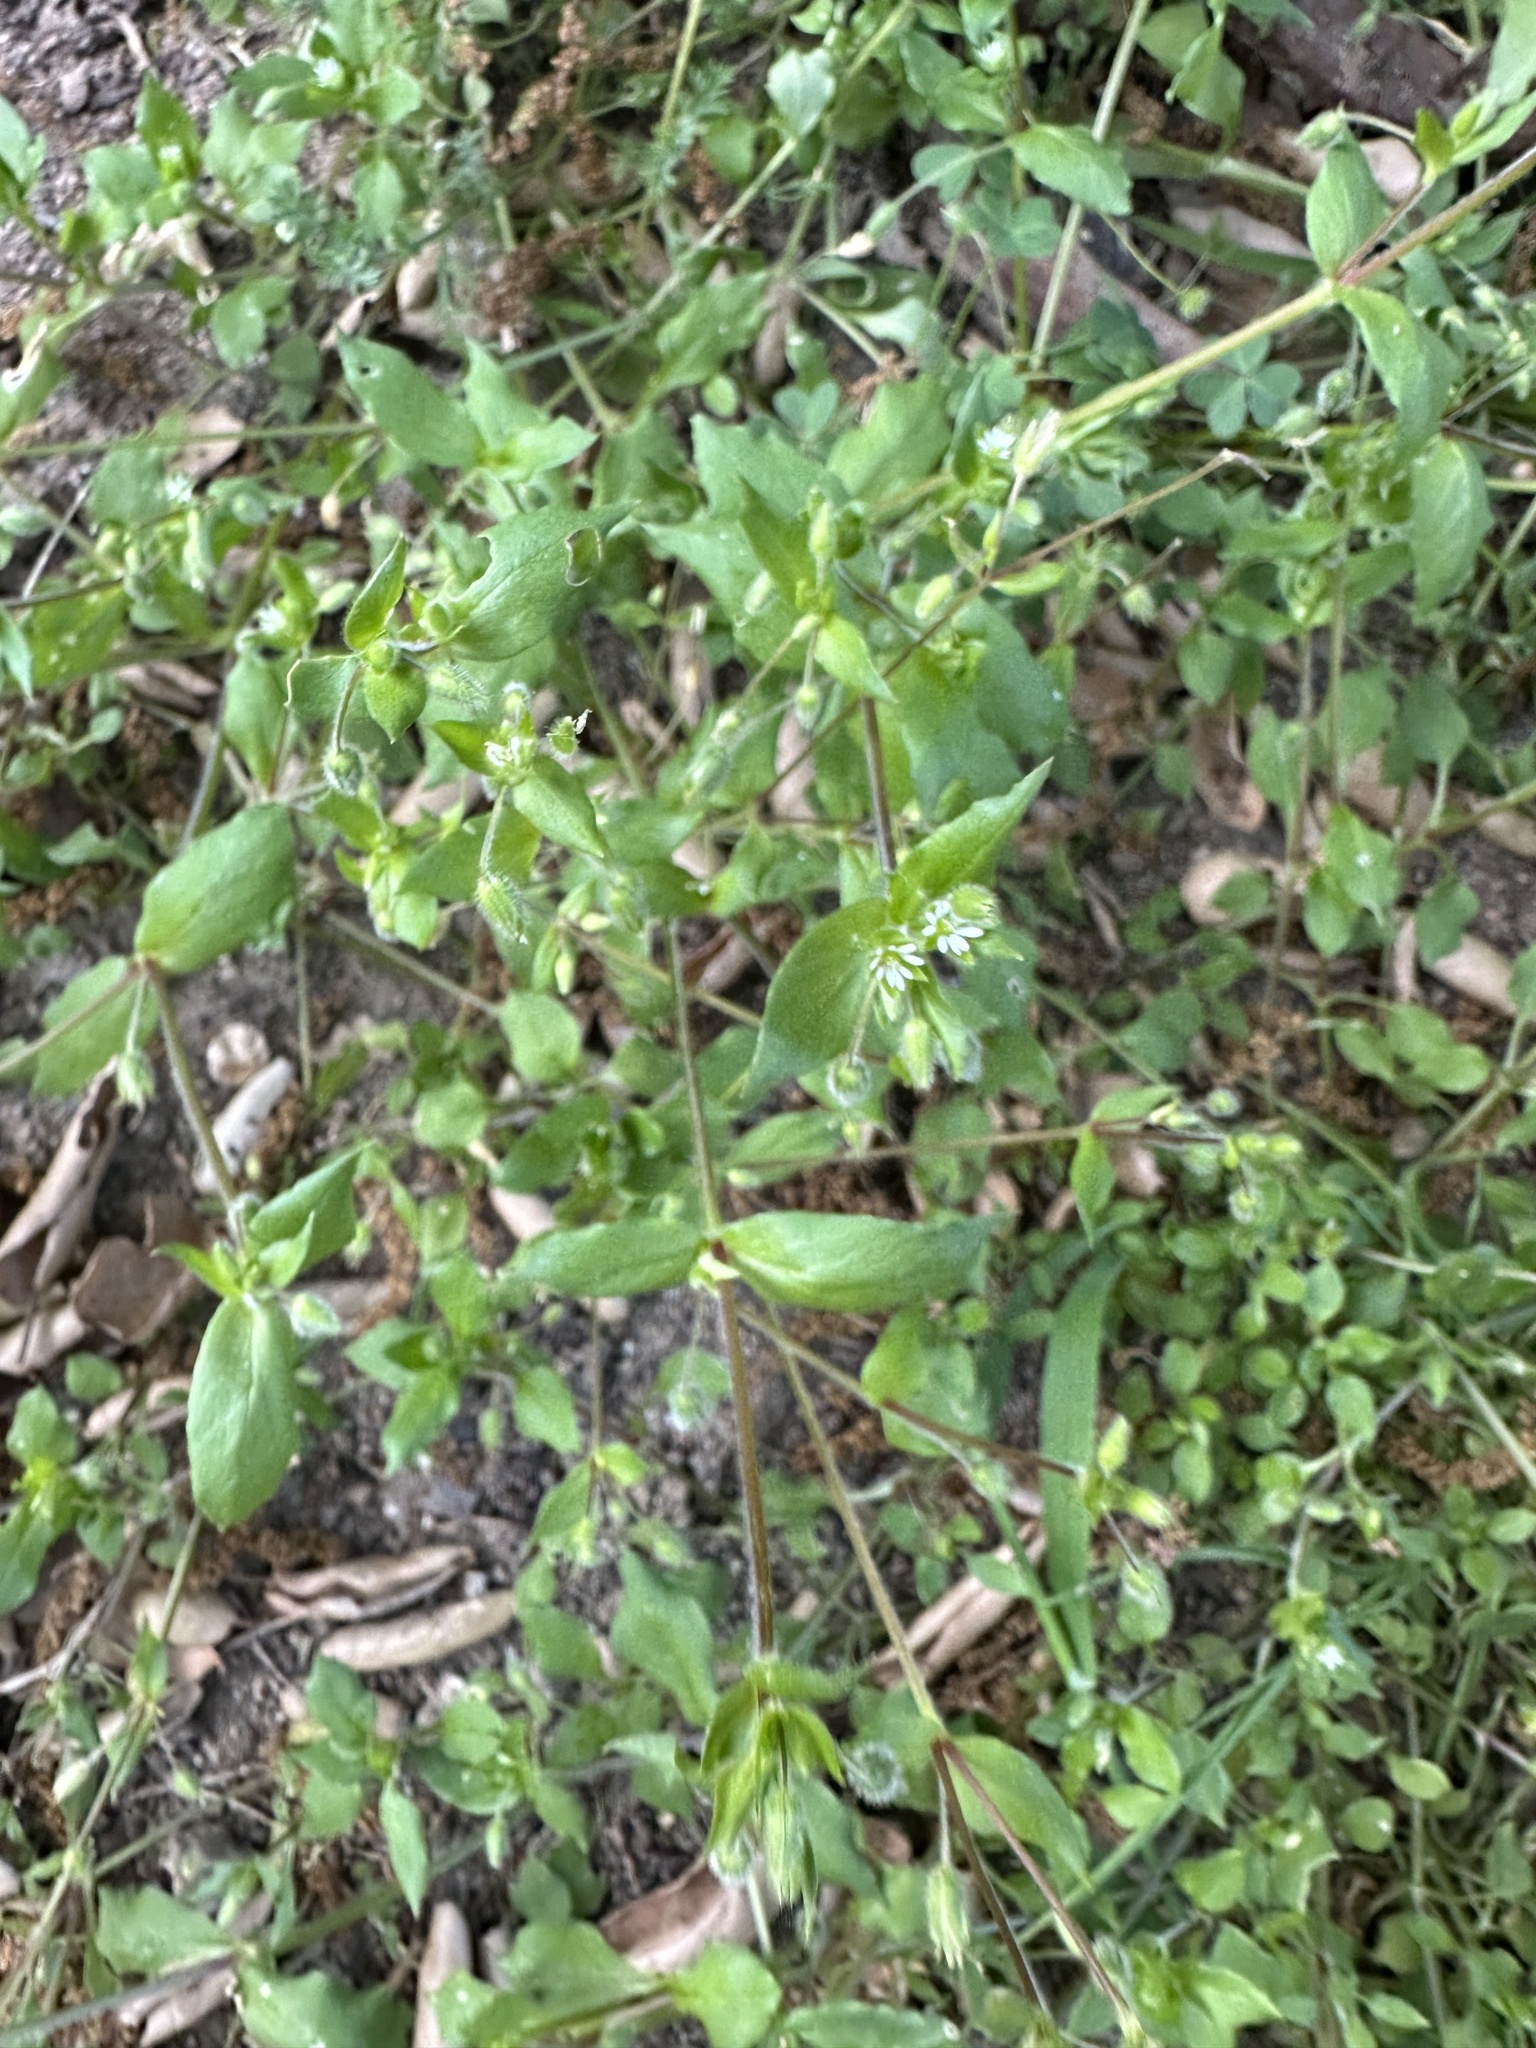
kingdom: Plantae
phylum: Tracheophyta
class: Magnoliopsida
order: Caryophyllales
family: Caryophyllaceae
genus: Stellaria
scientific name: Stellaria media
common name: Common chickweed
